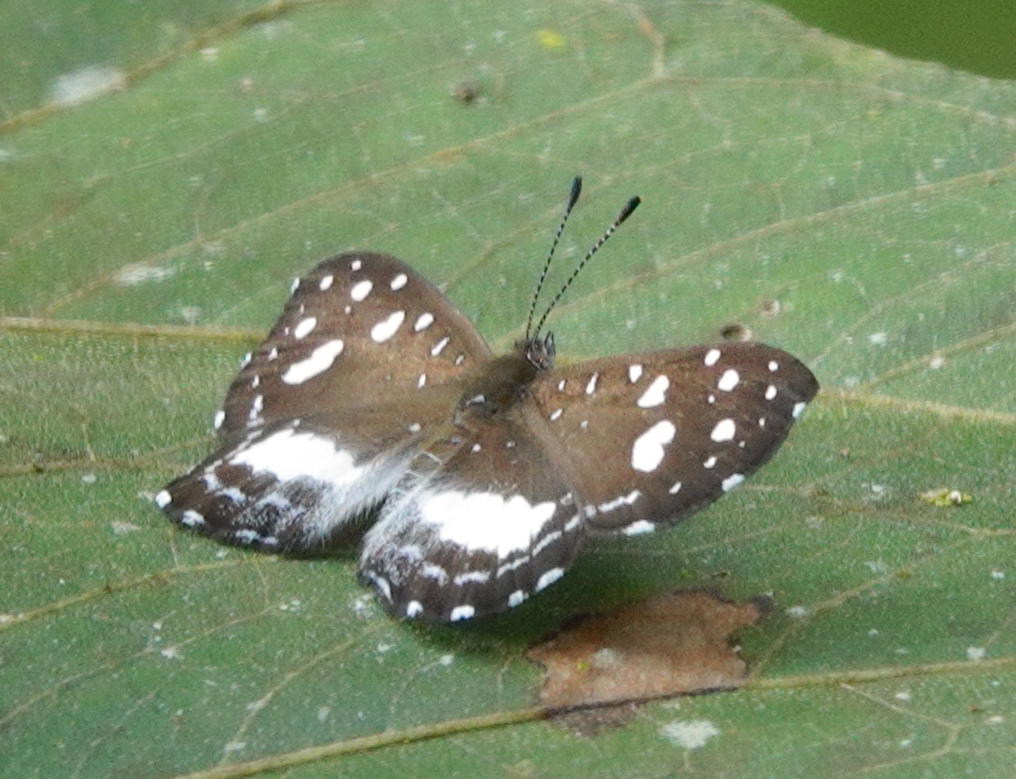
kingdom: Animalia
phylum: Arthropoda
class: Insecta
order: Lepidoptera
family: Riodinidae
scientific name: Riodinidae
